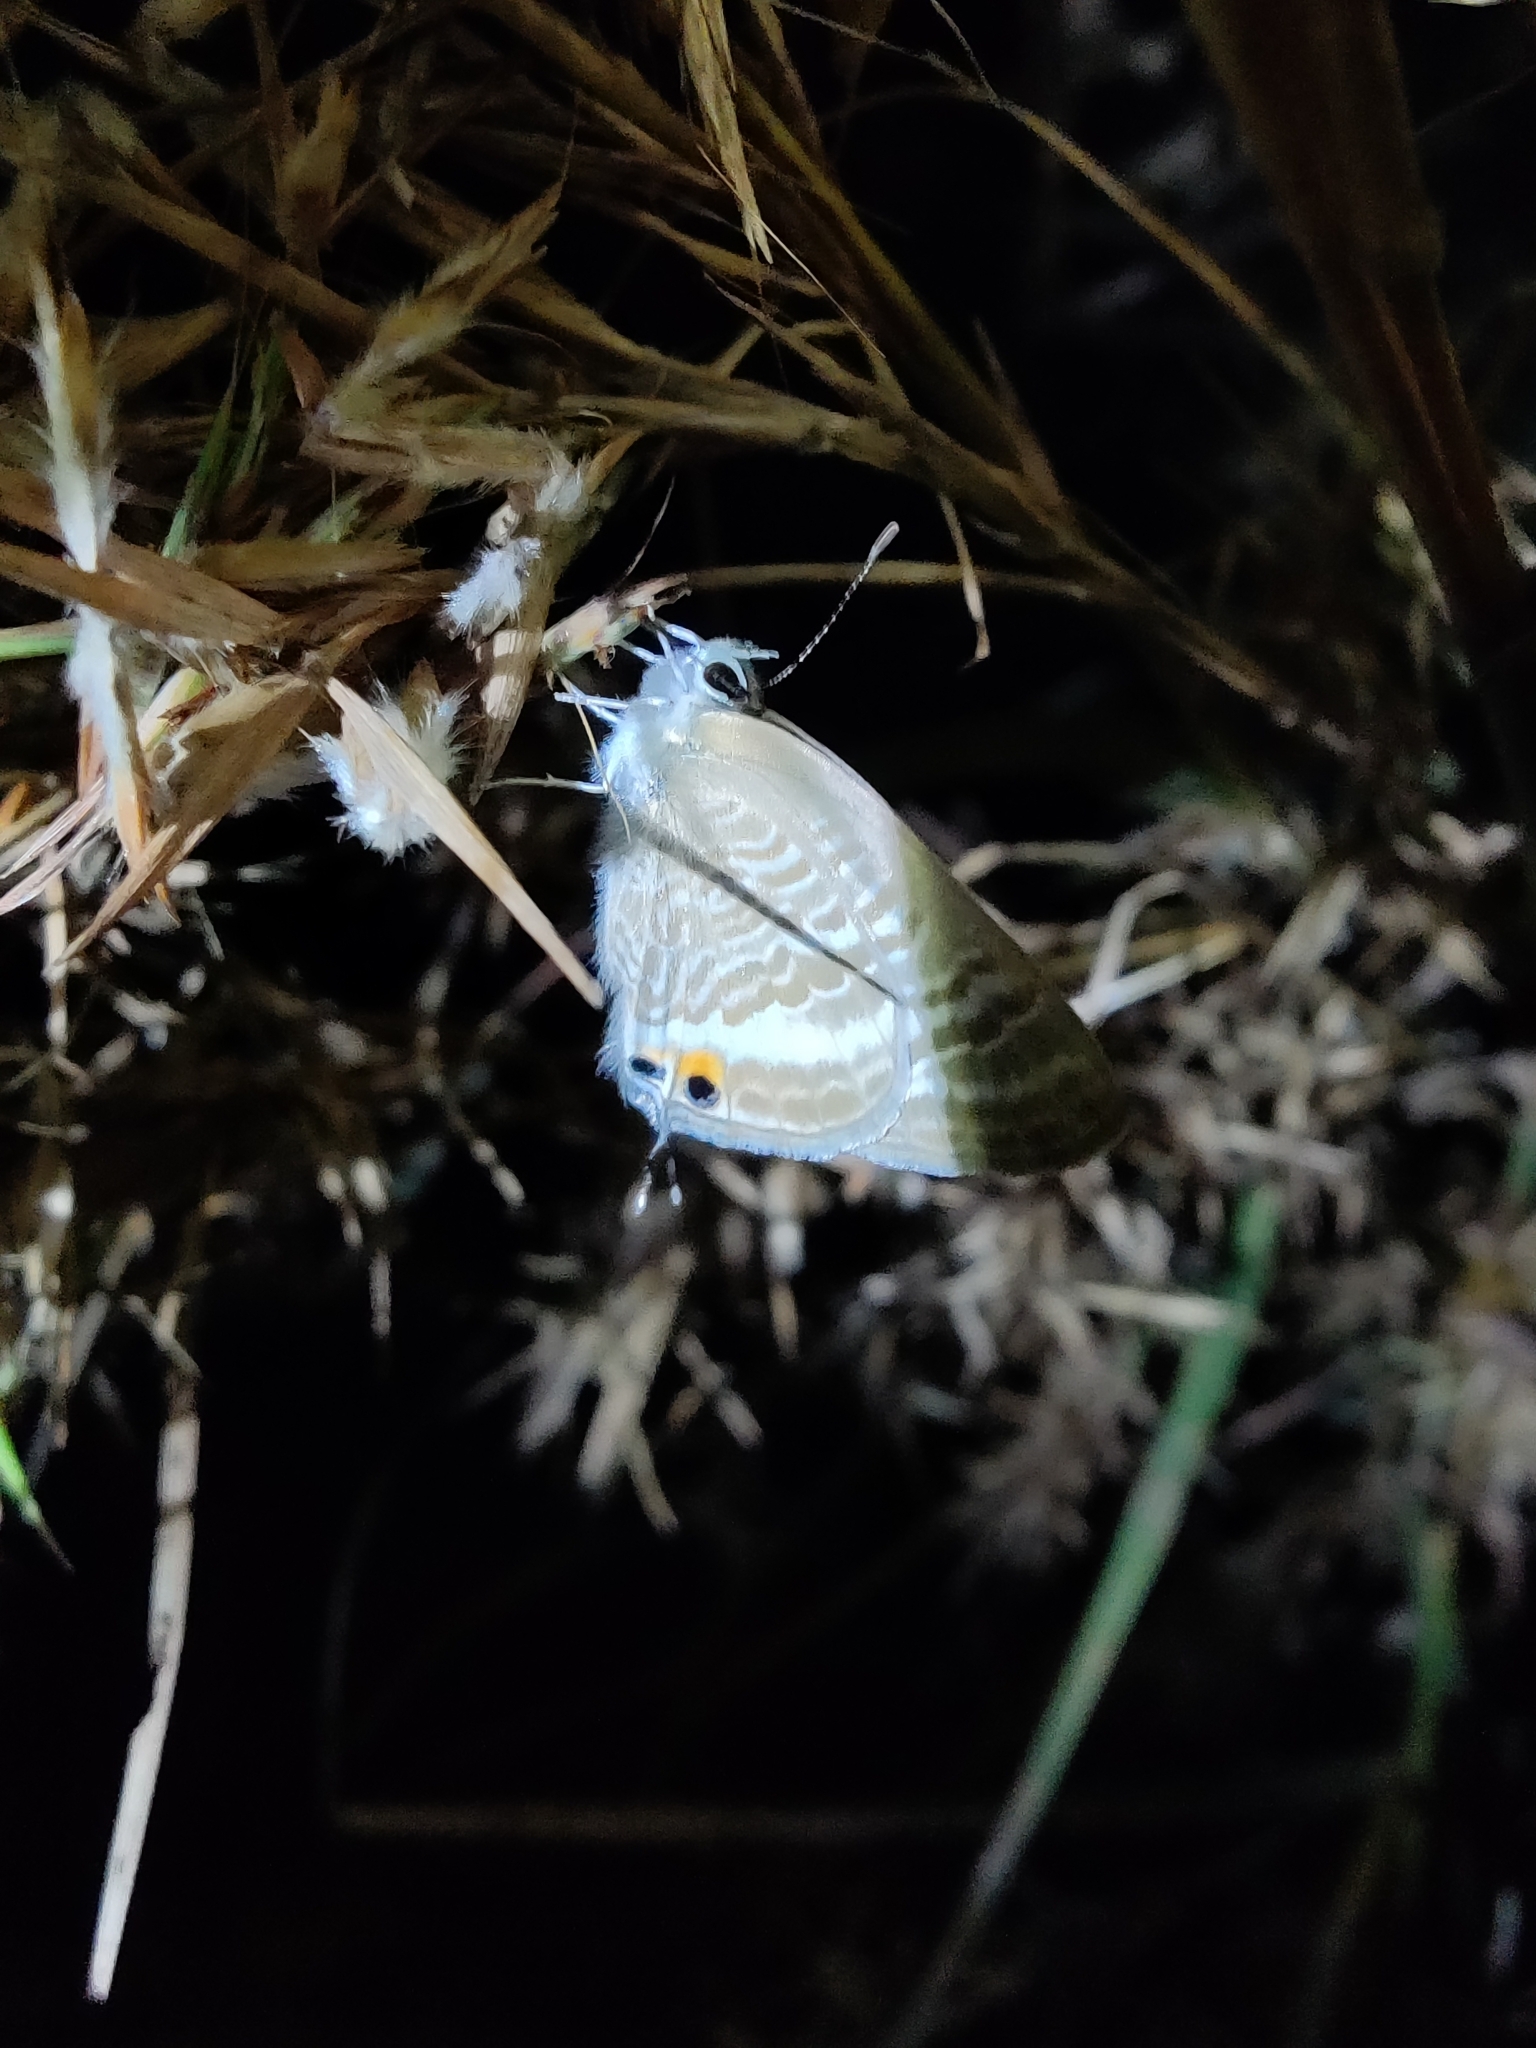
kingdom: Animalia
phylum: Arthropoda
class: Insecta
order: Lepidoptera
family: Lycaenidae
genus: Lampides
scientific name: Lampides boeticus
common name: Long-tailed blue
